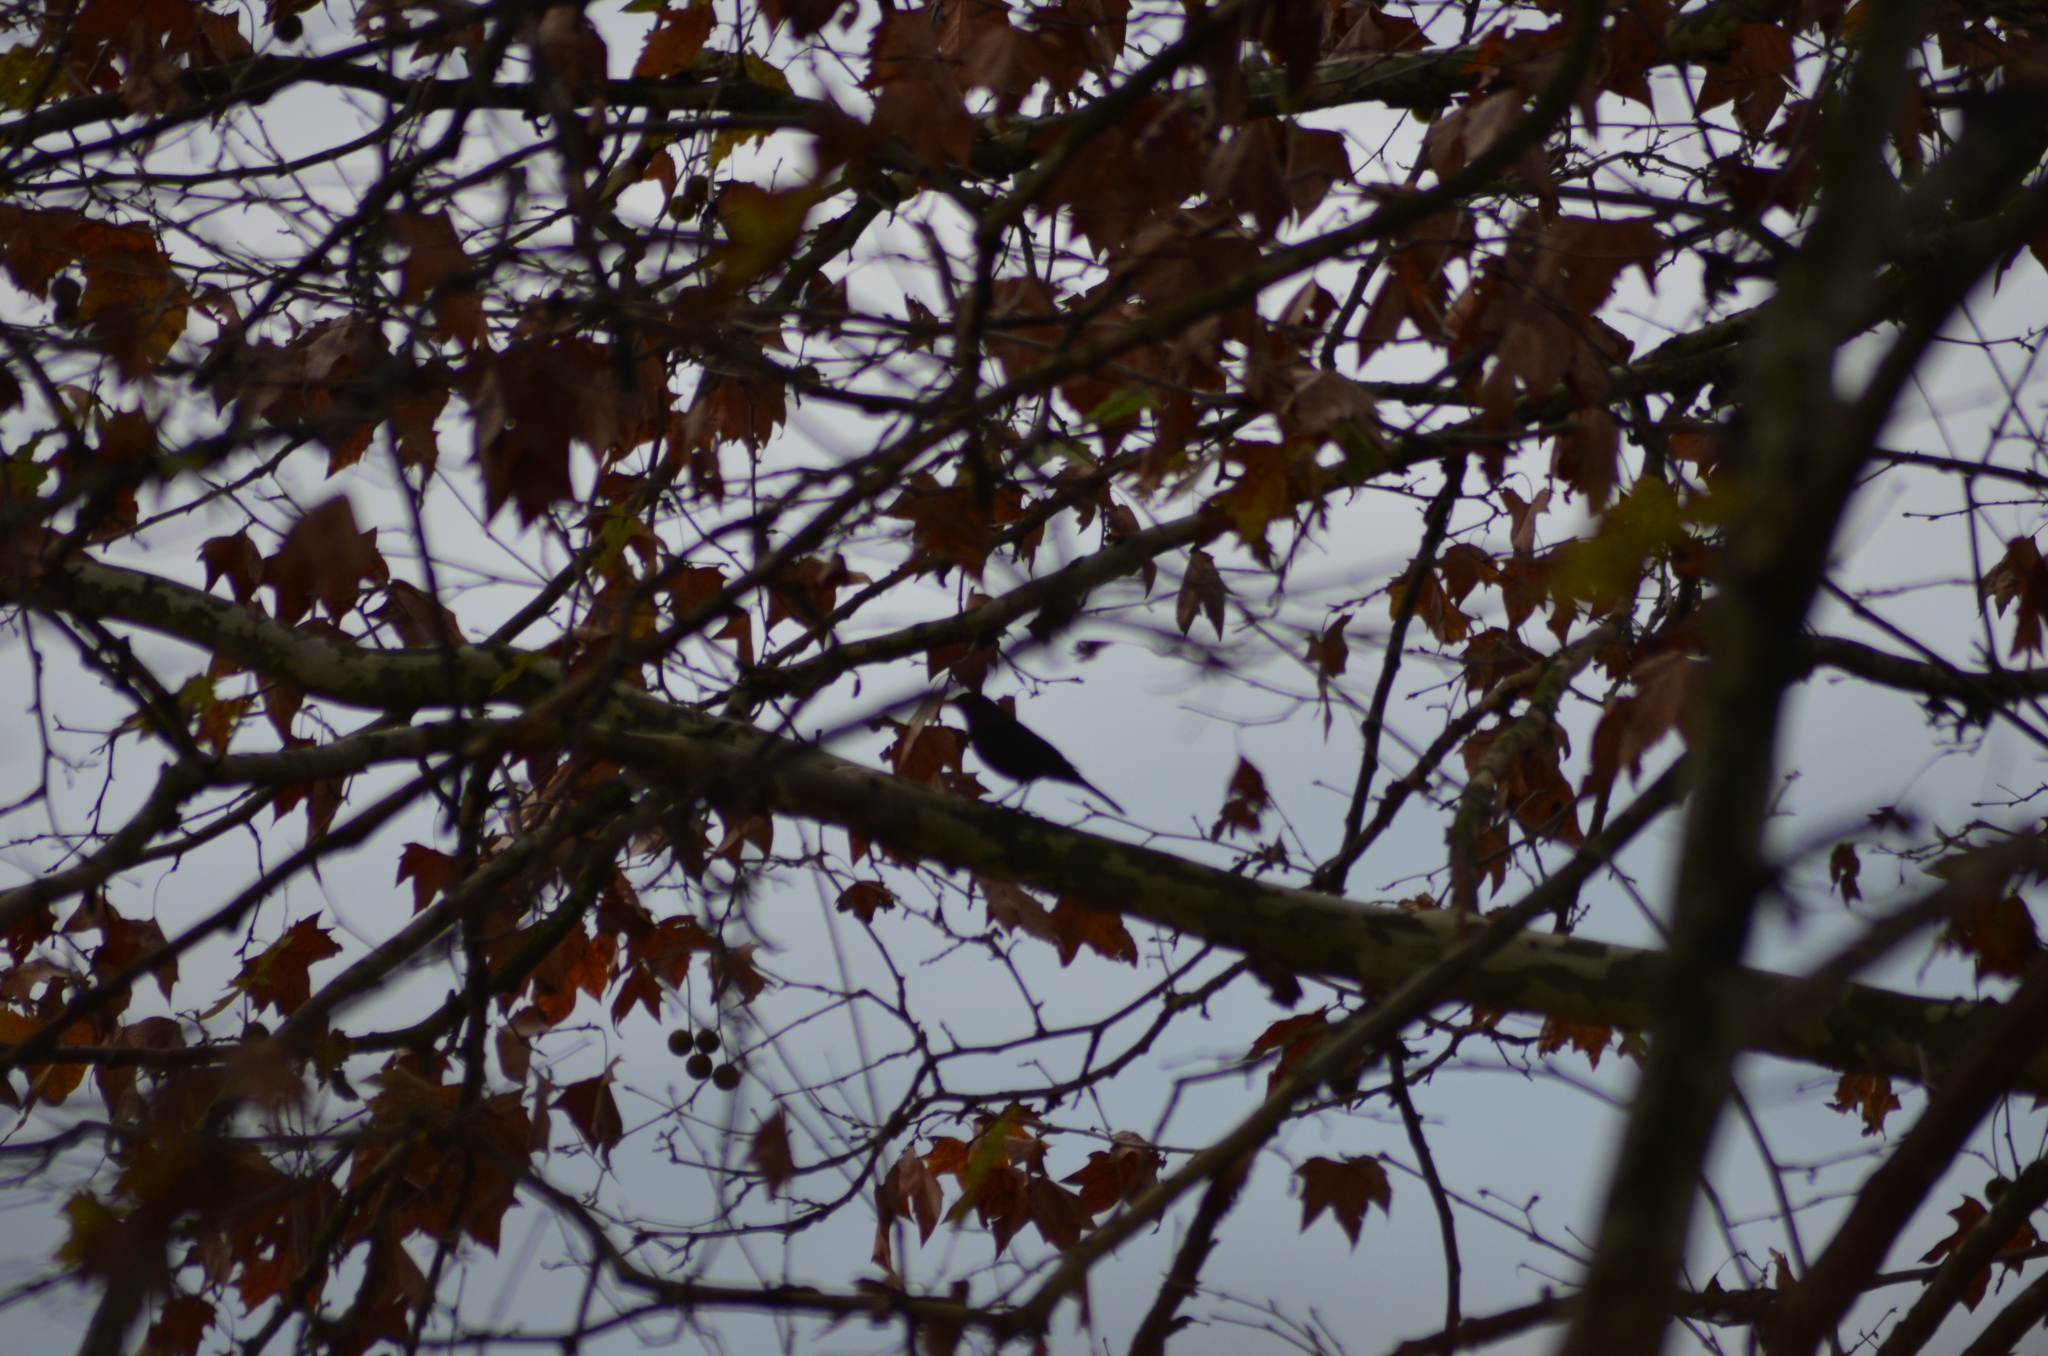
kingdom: Animalia
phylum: Chordata
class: Aves
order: Passeriformes
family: Turdidae
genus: Turdus
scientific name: Turdus merula
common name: Common blackbird
